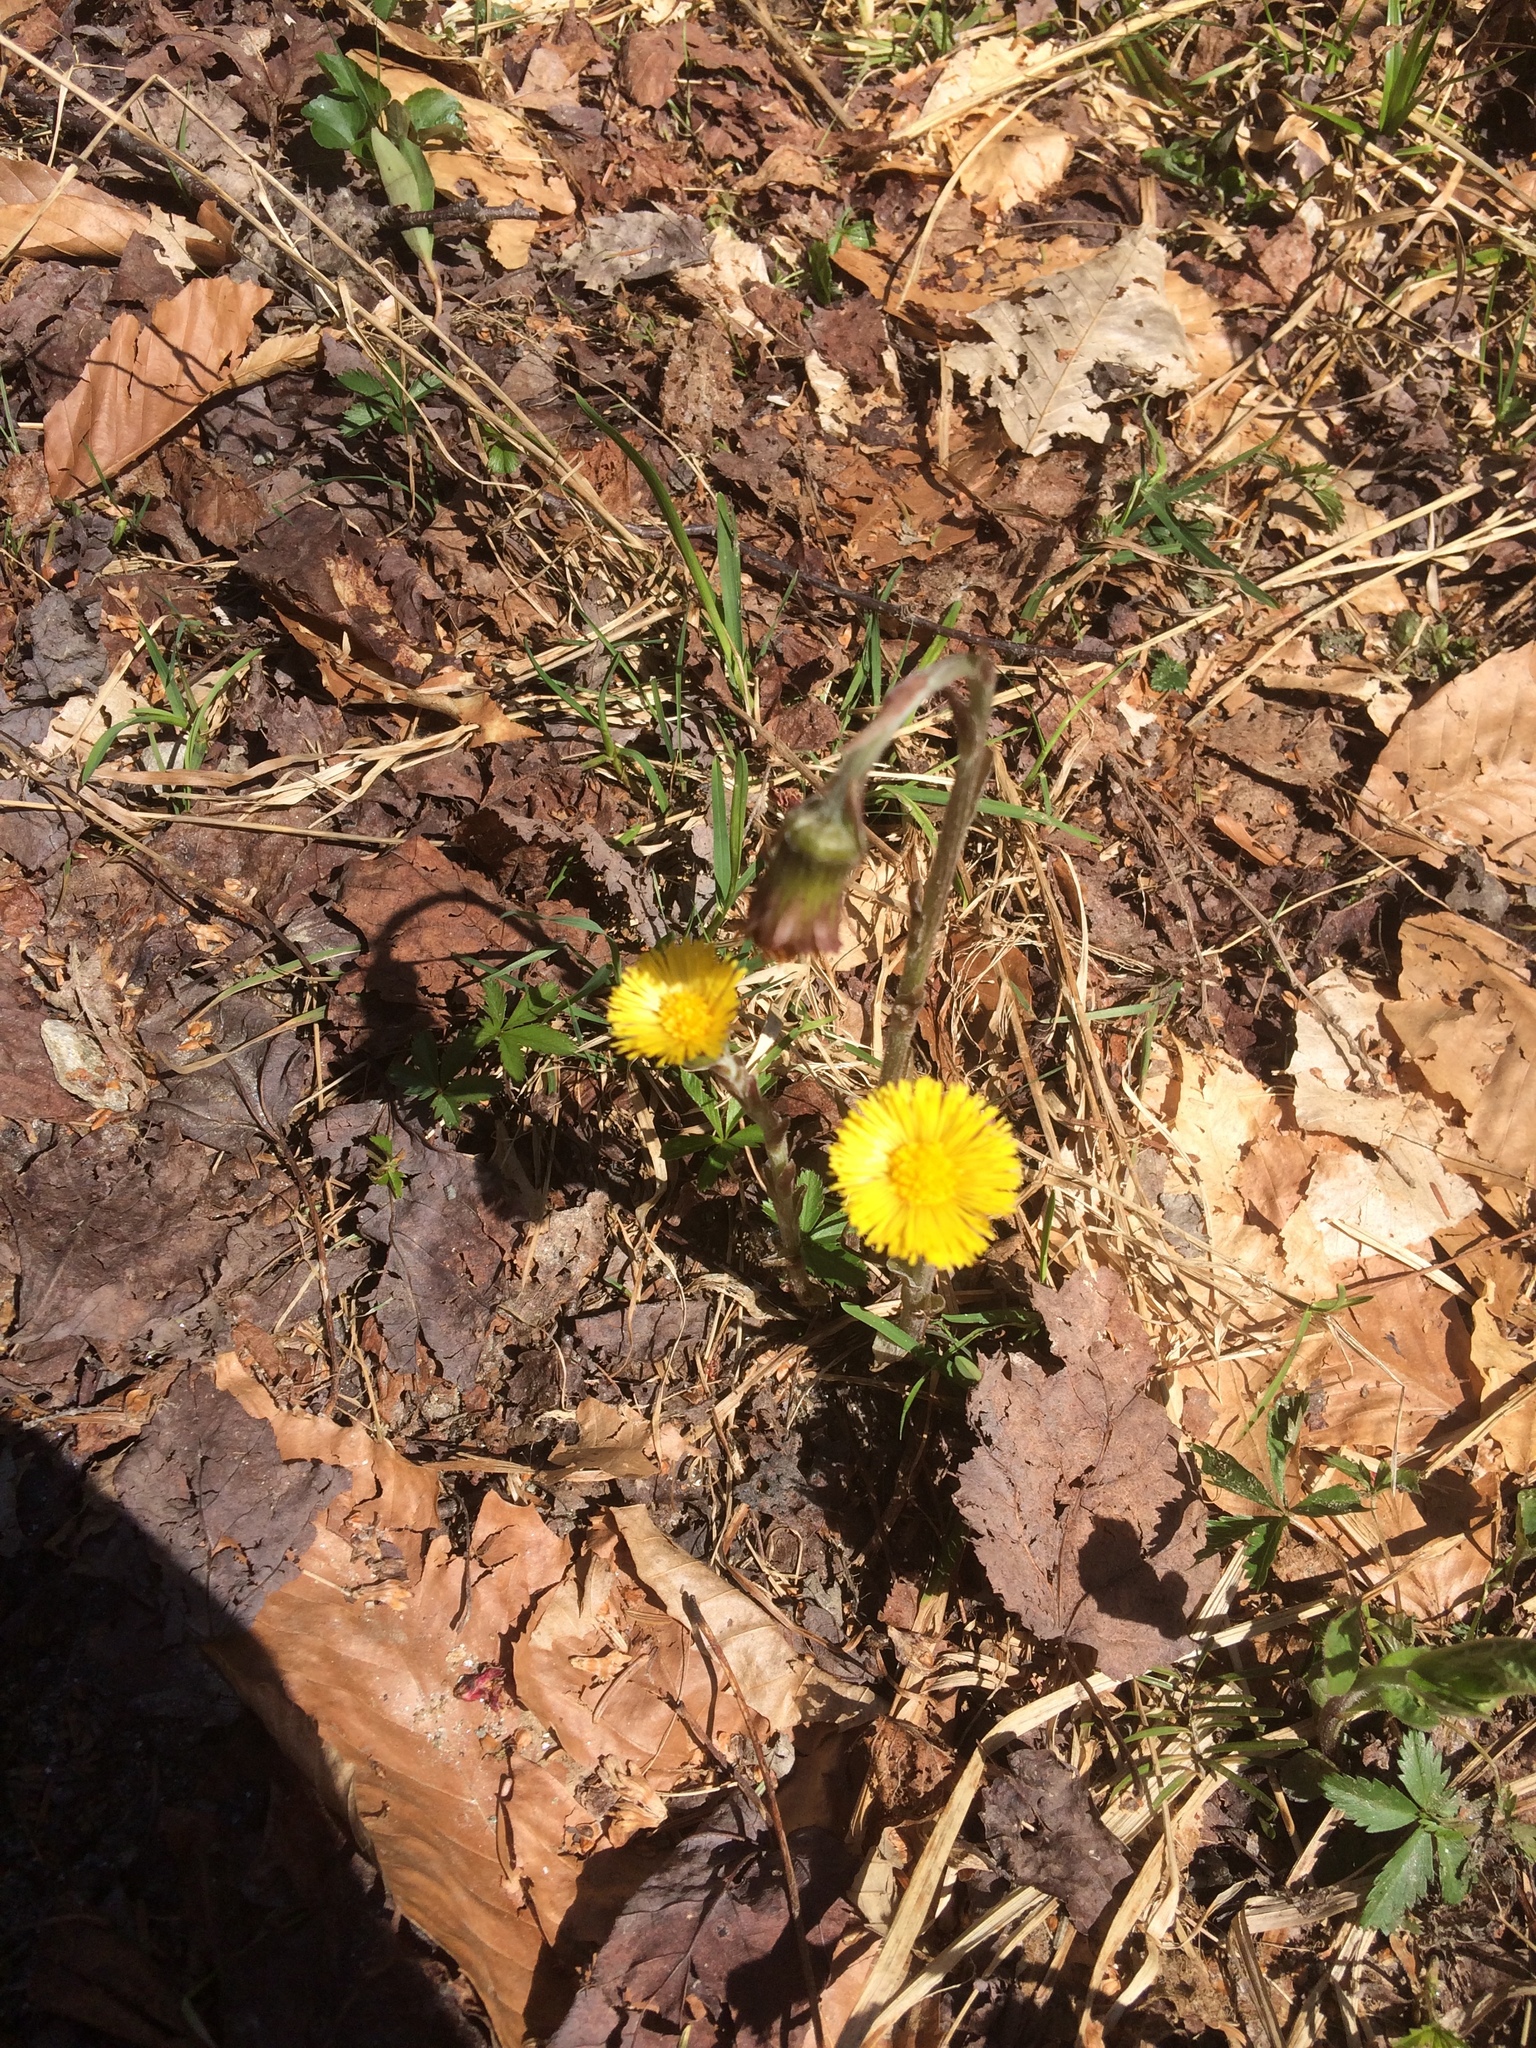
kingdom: Plantae
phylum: Tracheophyta
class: Magnoliopsida
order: Asterales
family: Asteraceae
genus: Tussilago
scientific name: Tussilago farfara
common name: Coltsfoot
